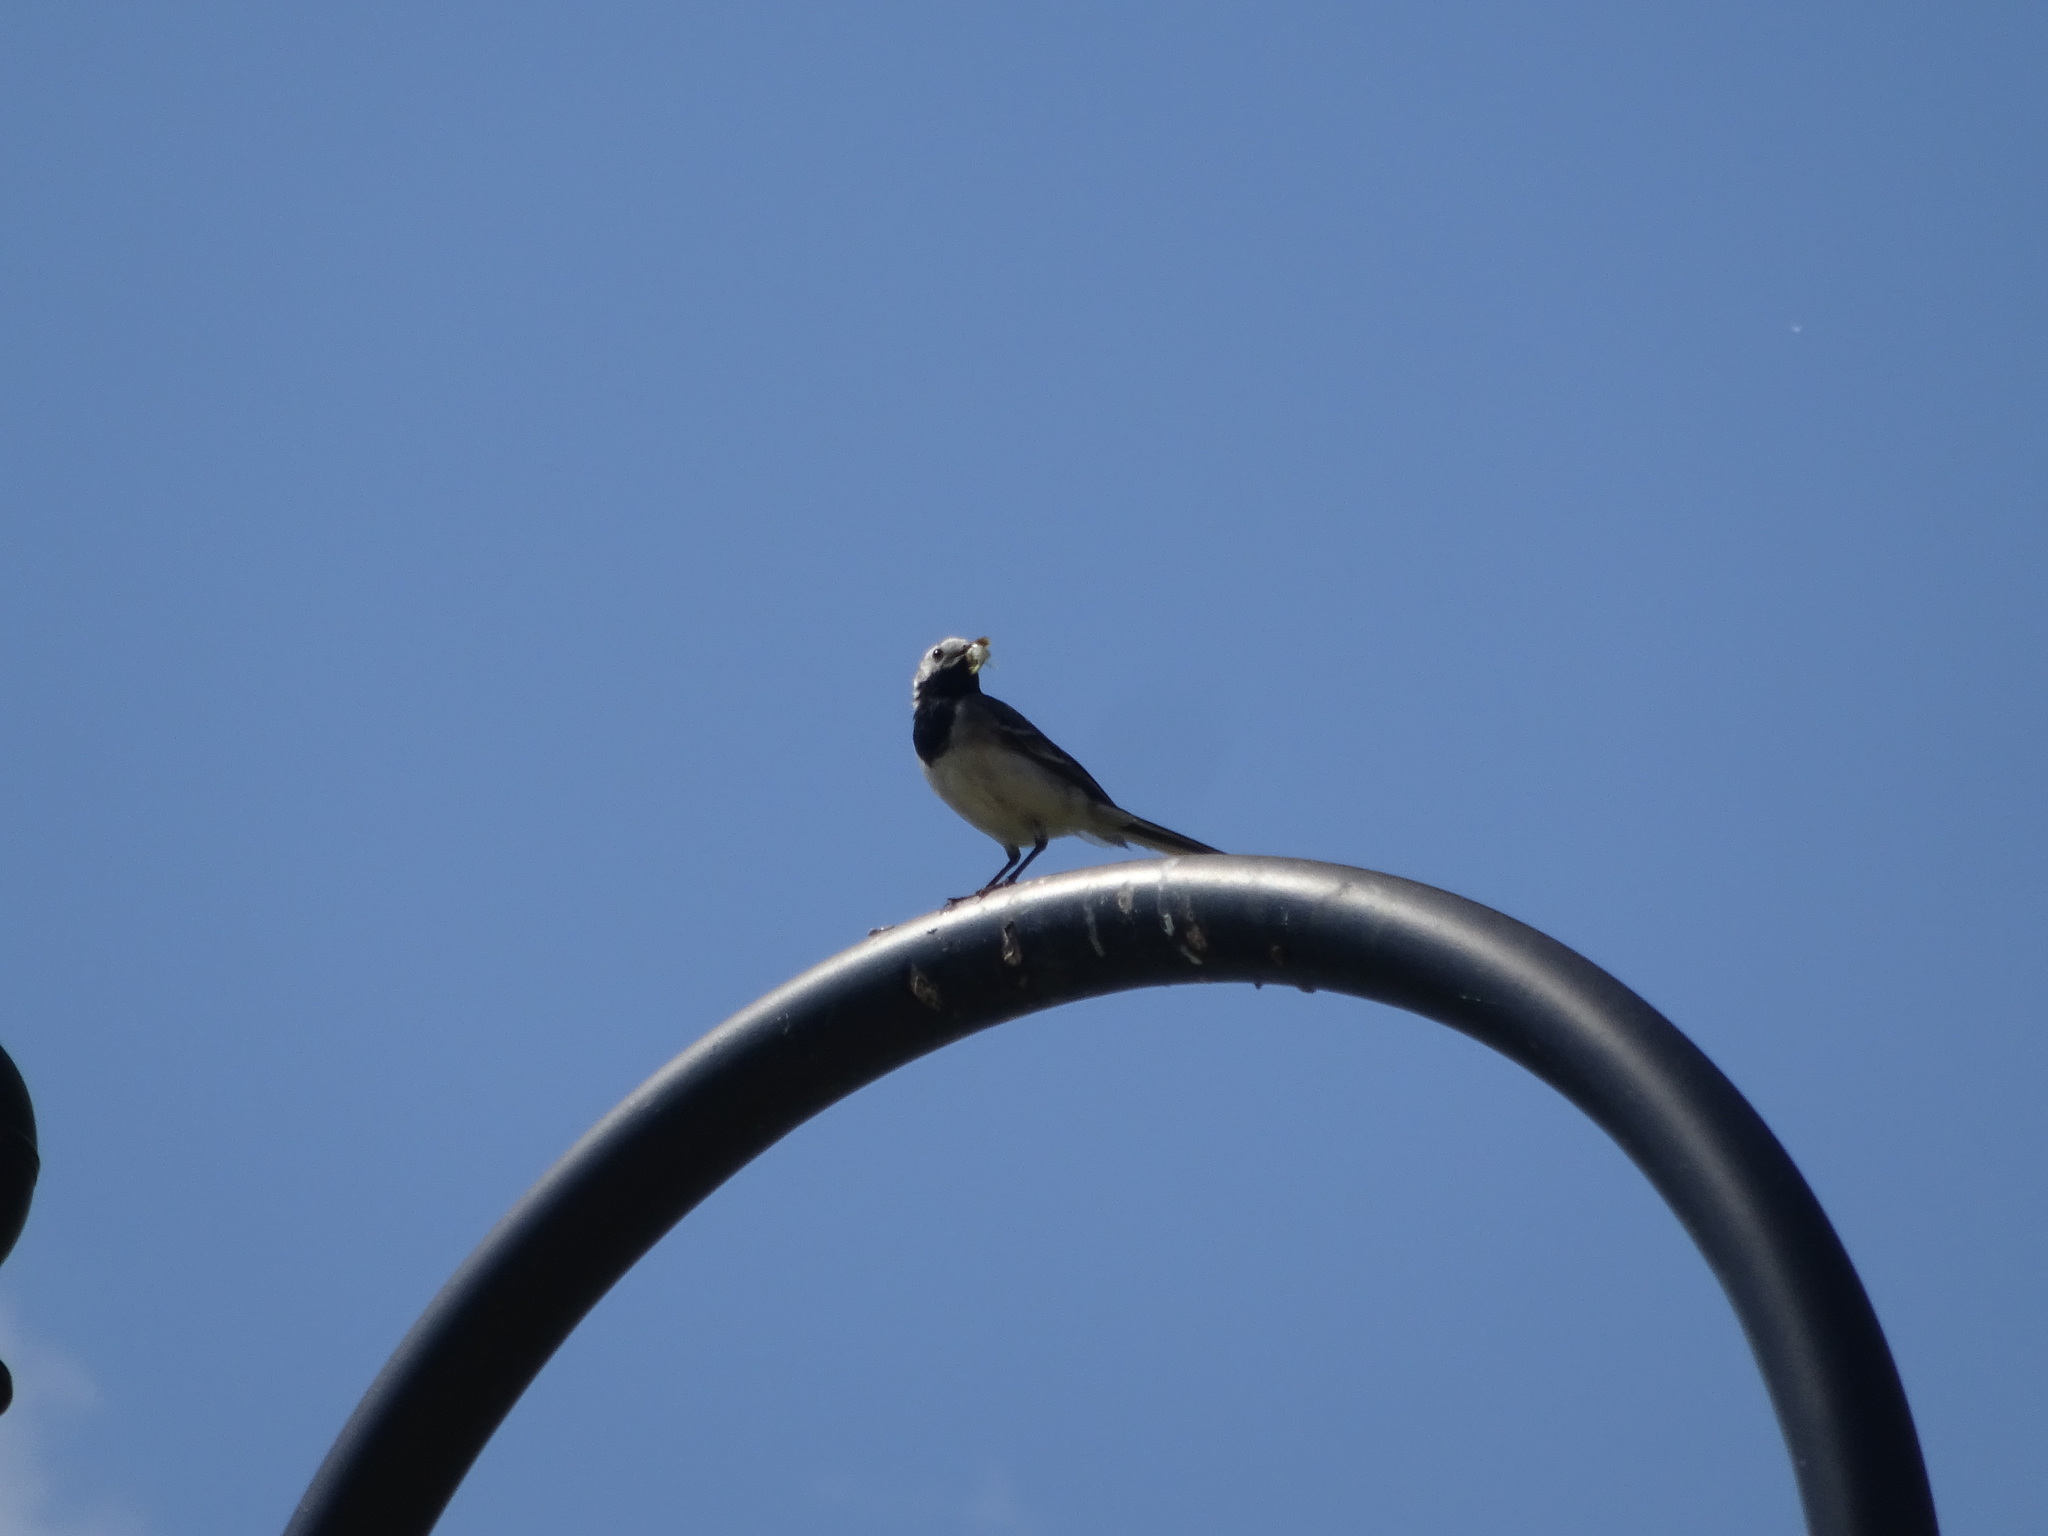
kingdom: Animalia
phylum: Chordata
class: Aves
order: Passeriformes
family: Motacillidae
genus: Motacilla
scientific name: Motacilla alba
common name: White wagtail
